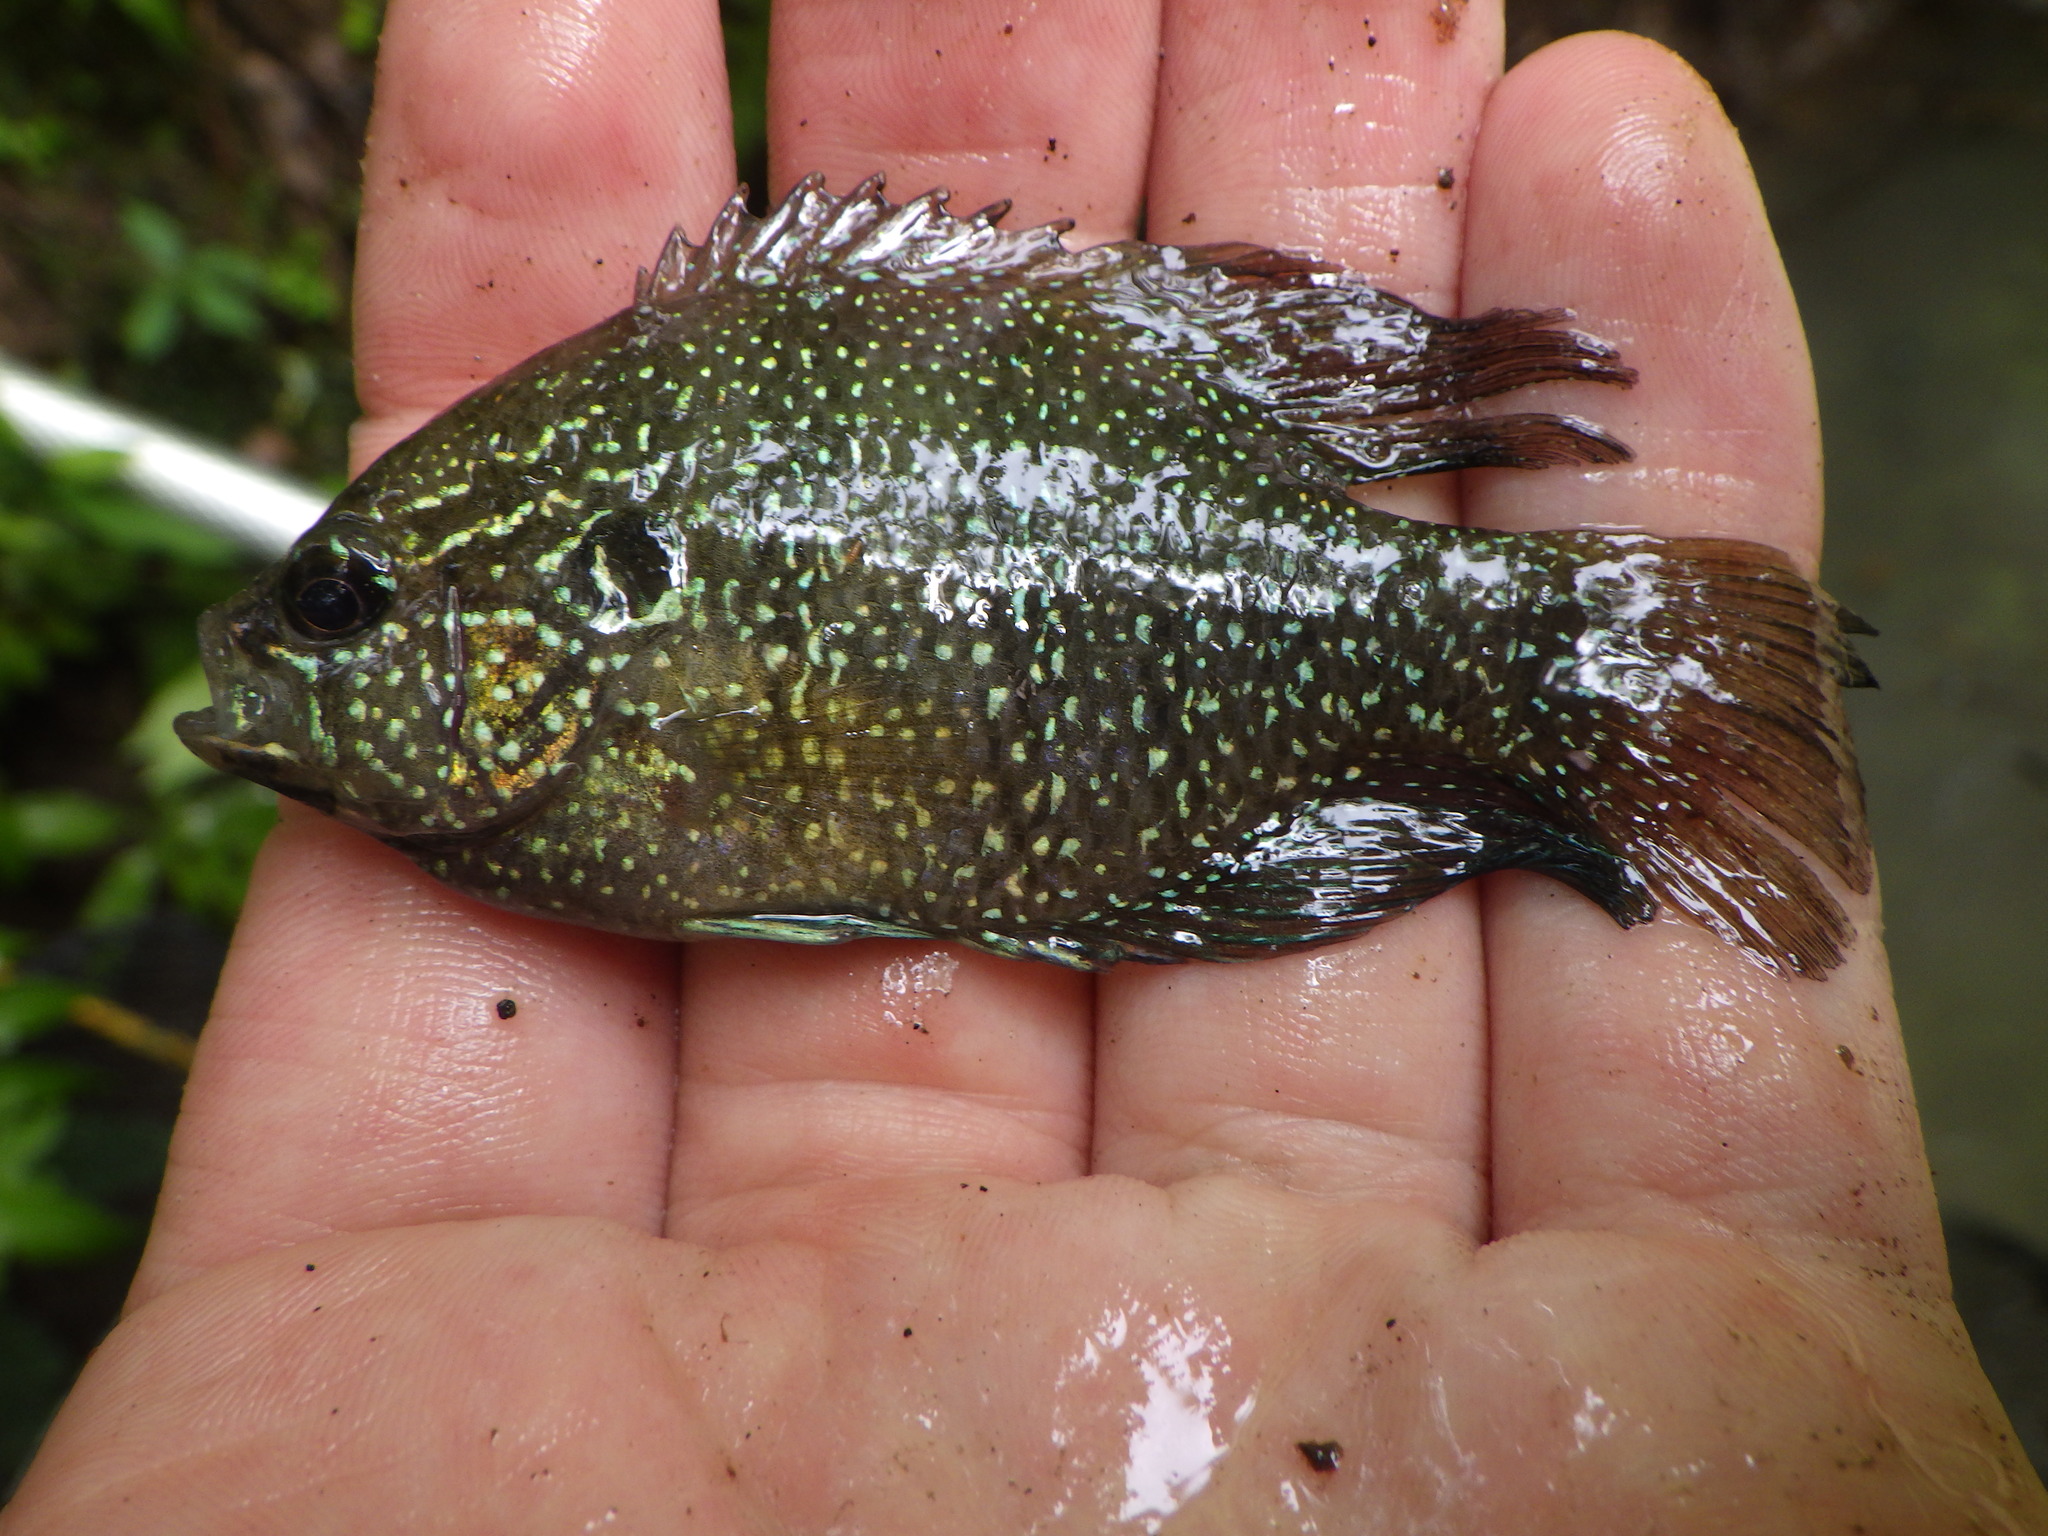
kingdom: Animalia
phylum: Chordata
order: Perciformes
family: Centrarchidae
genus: Enneacanthus
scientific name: Enneacanthus obesus
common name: Banded sunfish
